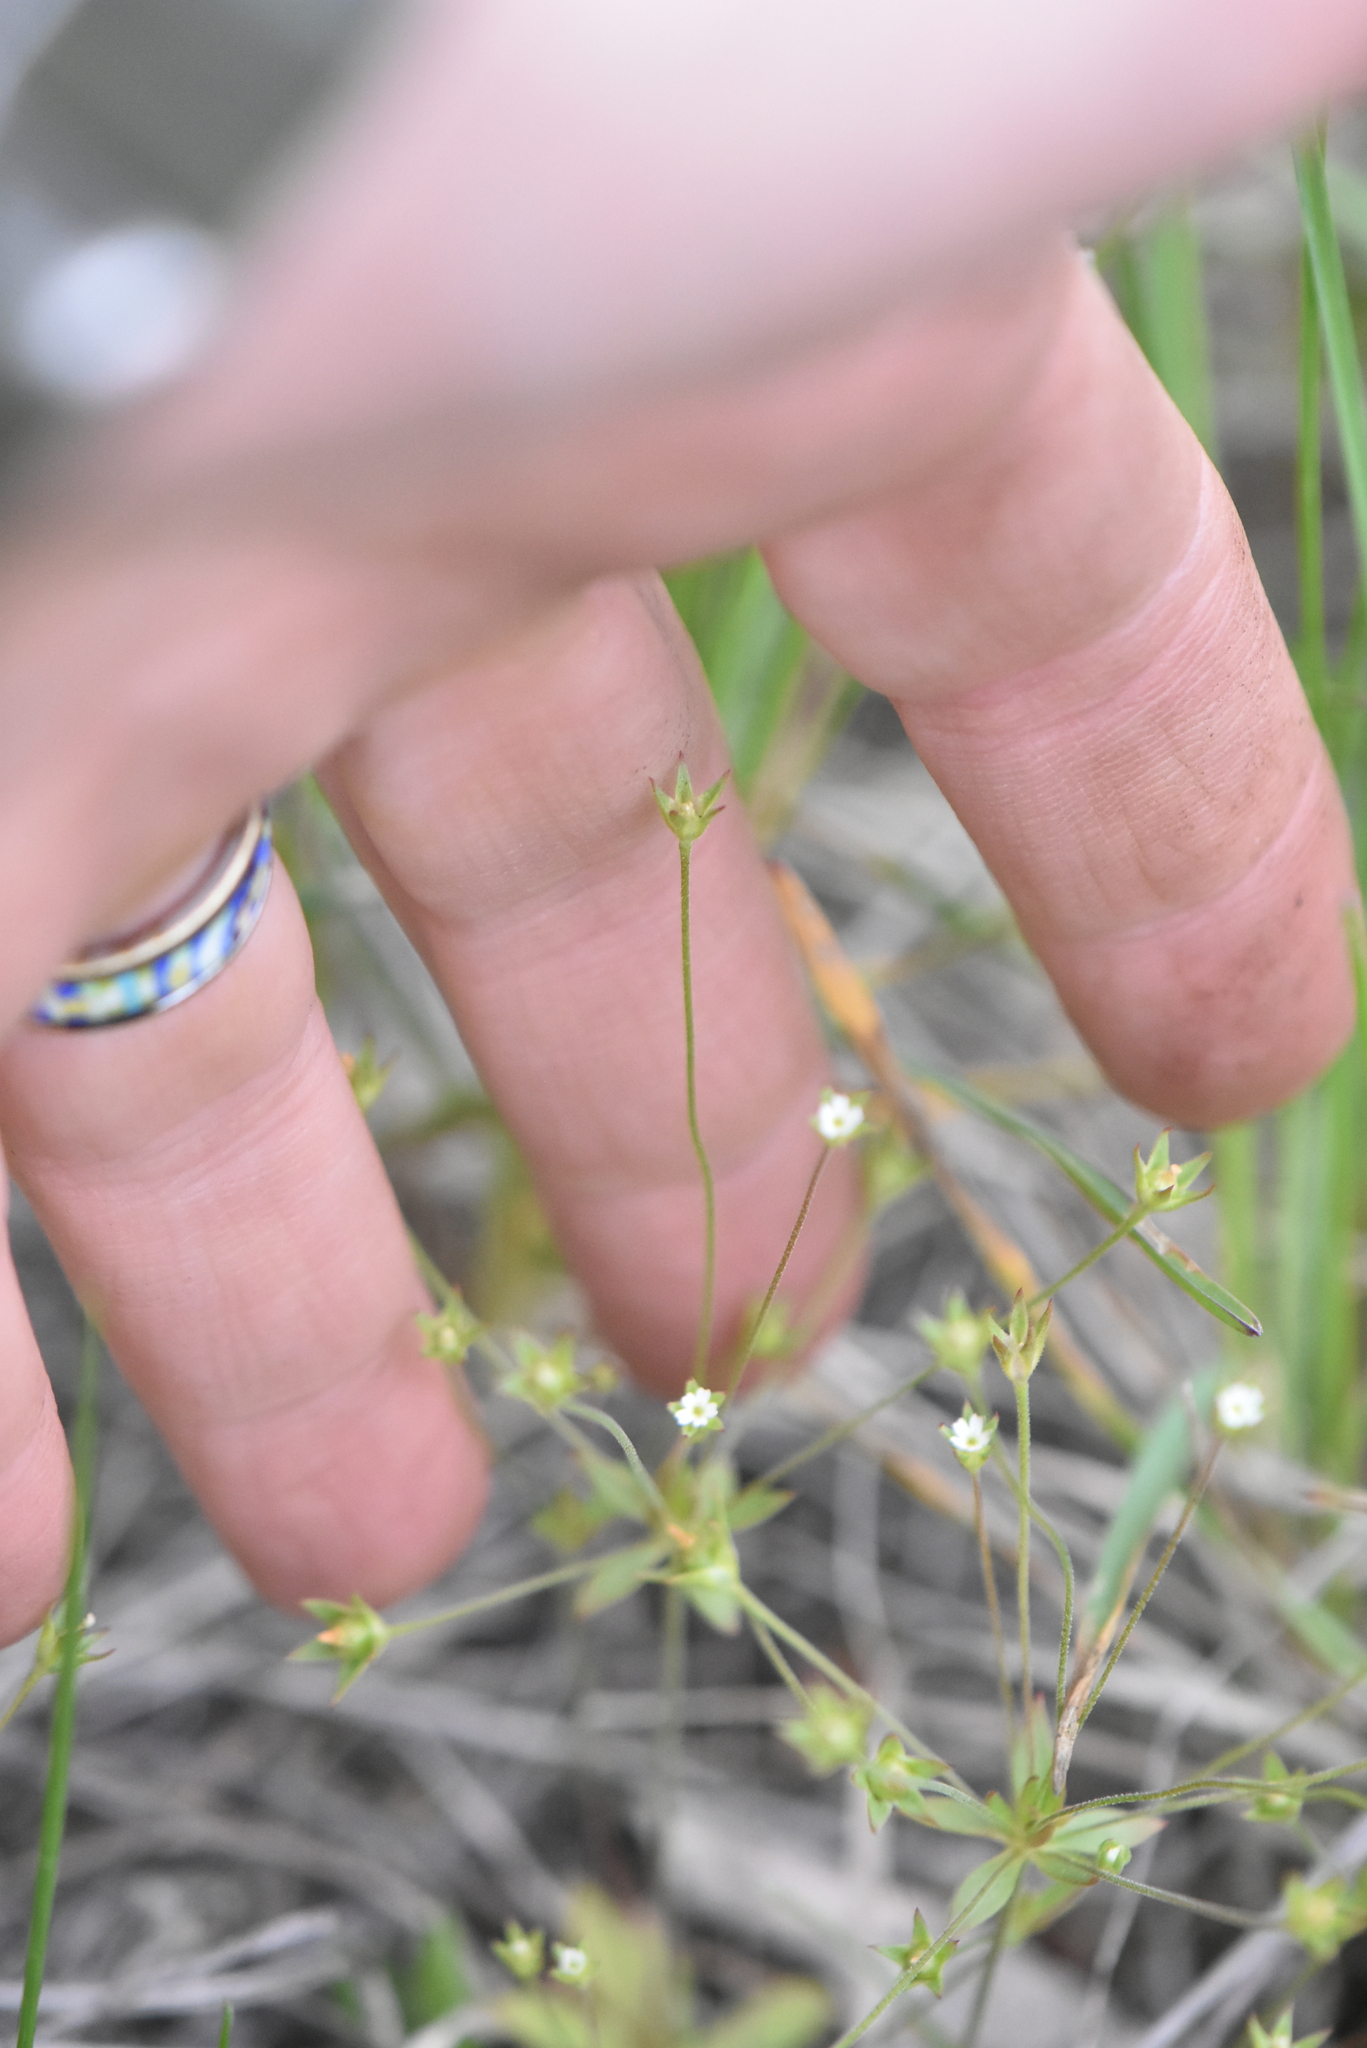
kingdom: Plantae
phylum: Tracheophyta
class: Magnoliopsida
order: Ericales
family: Primulaceae
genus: Androsace
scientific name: Androsace elongata
